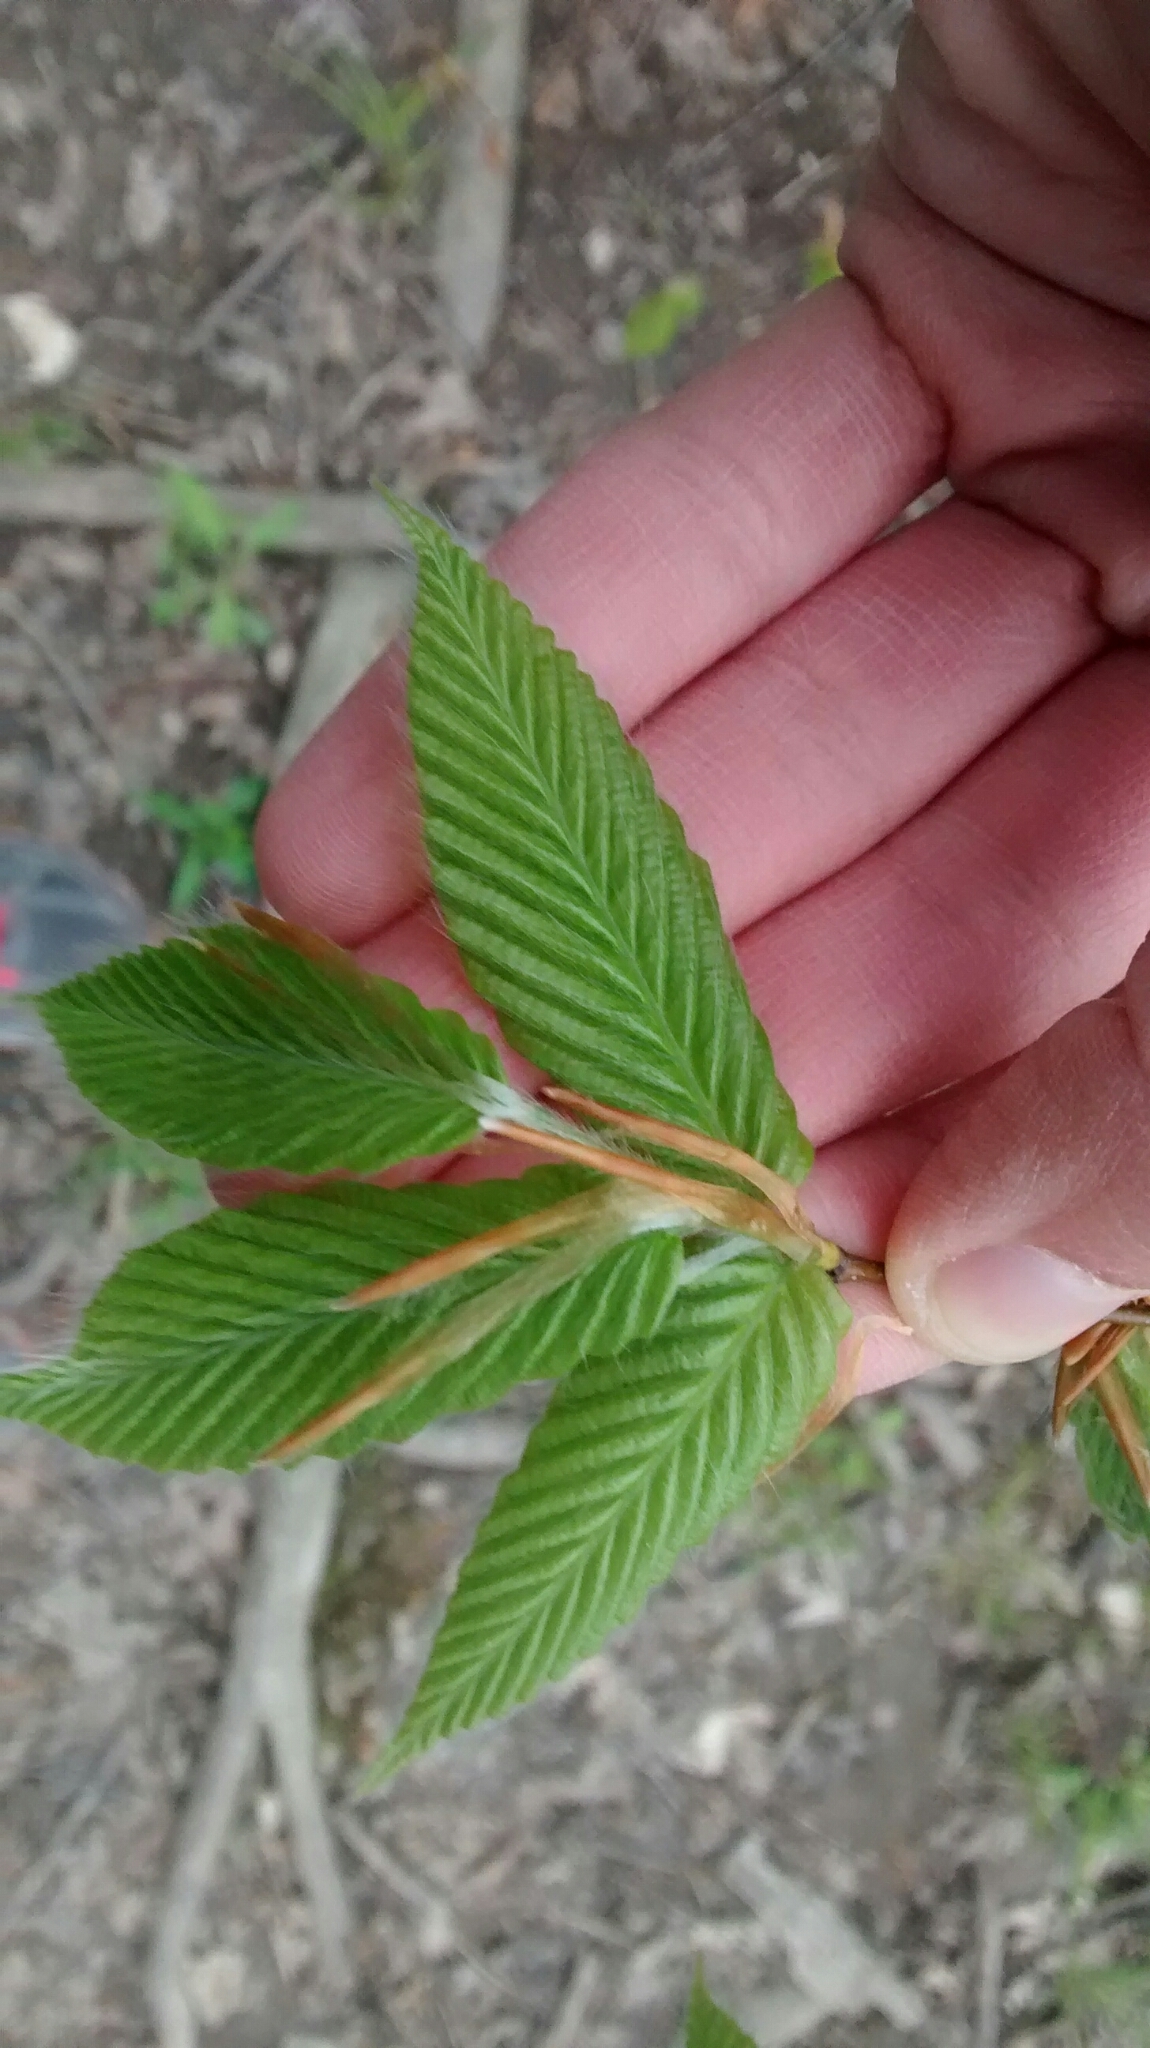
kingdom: Plantae
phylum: Tracheophyta
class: Magnoliopsida
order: Fagales
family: Fagaceae
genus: Fagus
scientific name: Fagus grandifolia
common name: American beech
